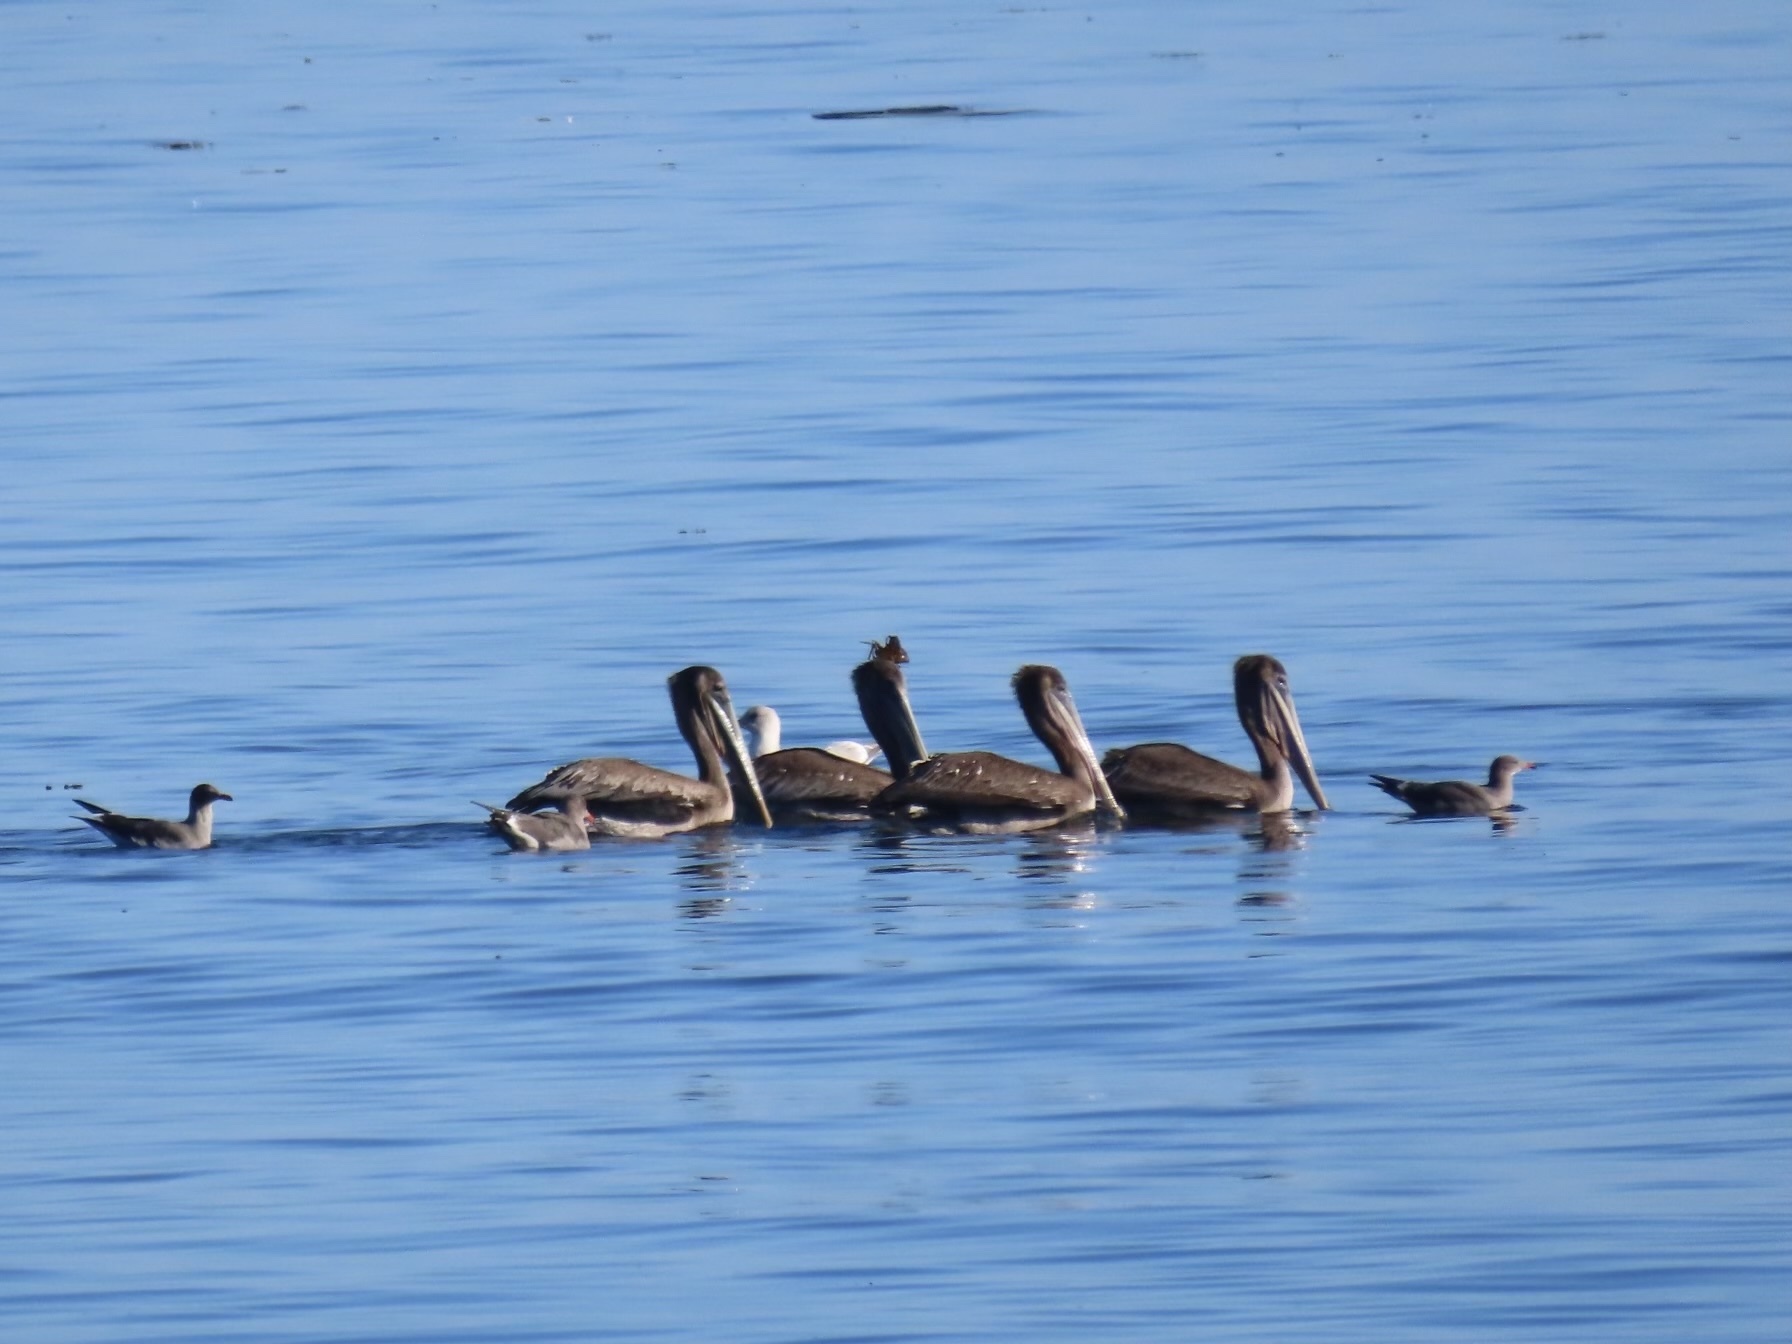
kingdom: Animalia
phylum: Chordata
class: Aves
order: Pelecaniformes
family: Pelecanidae
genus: Pelecanus
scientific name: Pelecanus occidentalis
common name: Brown pelican
